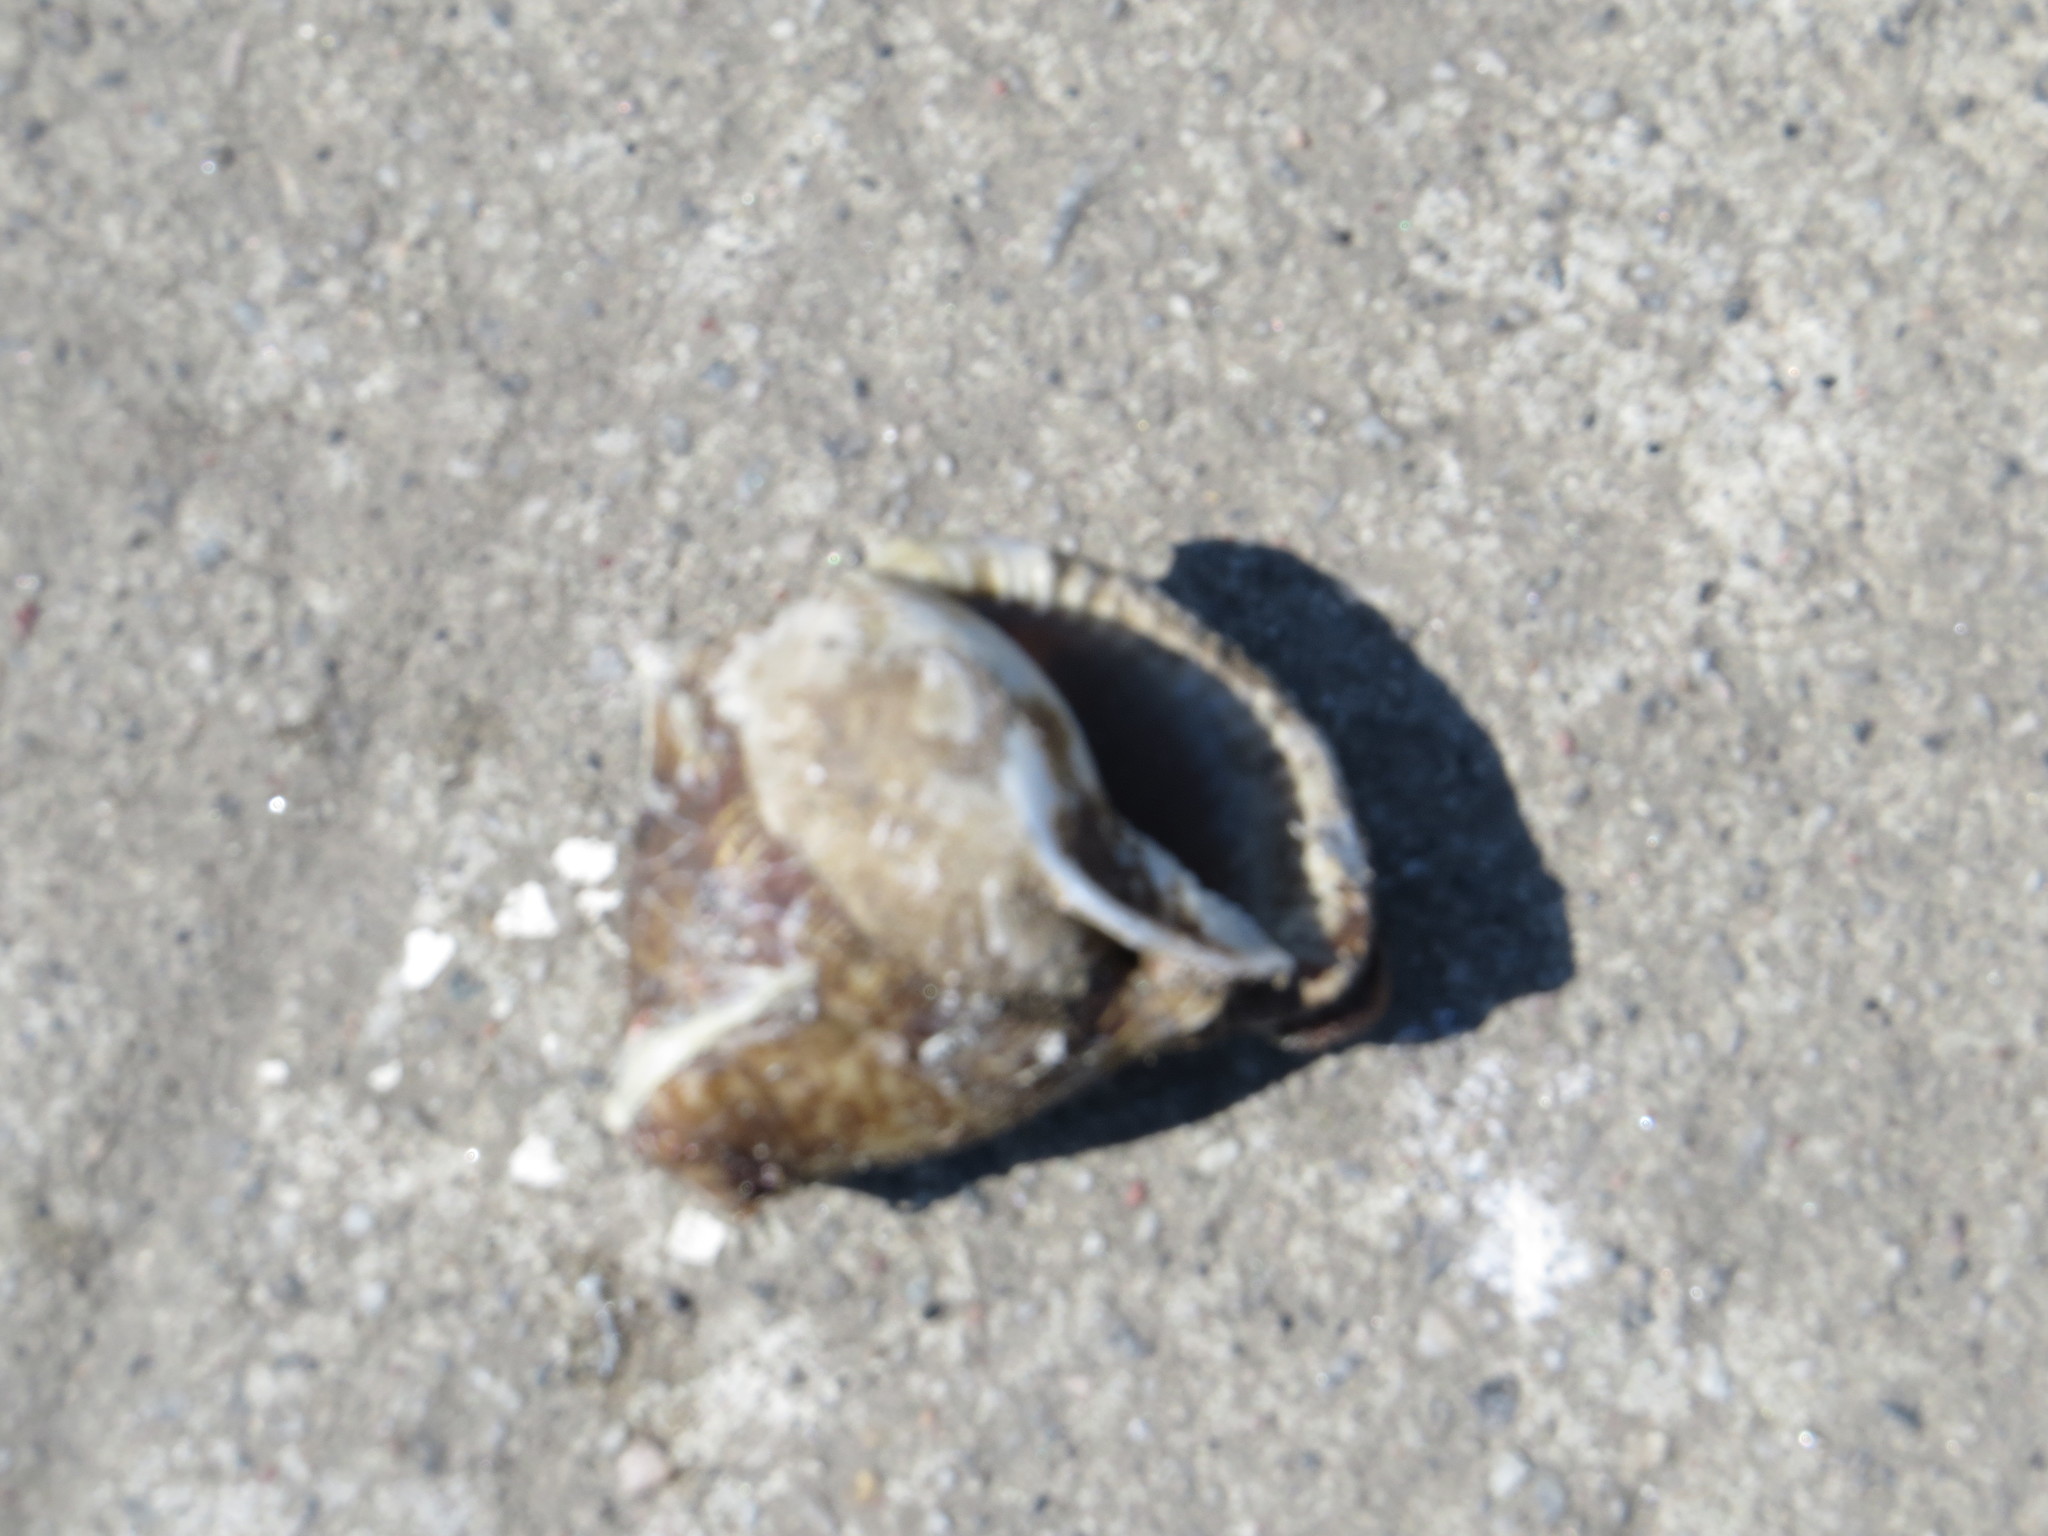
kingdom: Animalia
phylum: Mollusca
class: Gastropoda
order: Littorinimorpha
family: Cassidae
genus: Semicassis
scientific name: Semicassis granulata
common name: Scotch bonnet
